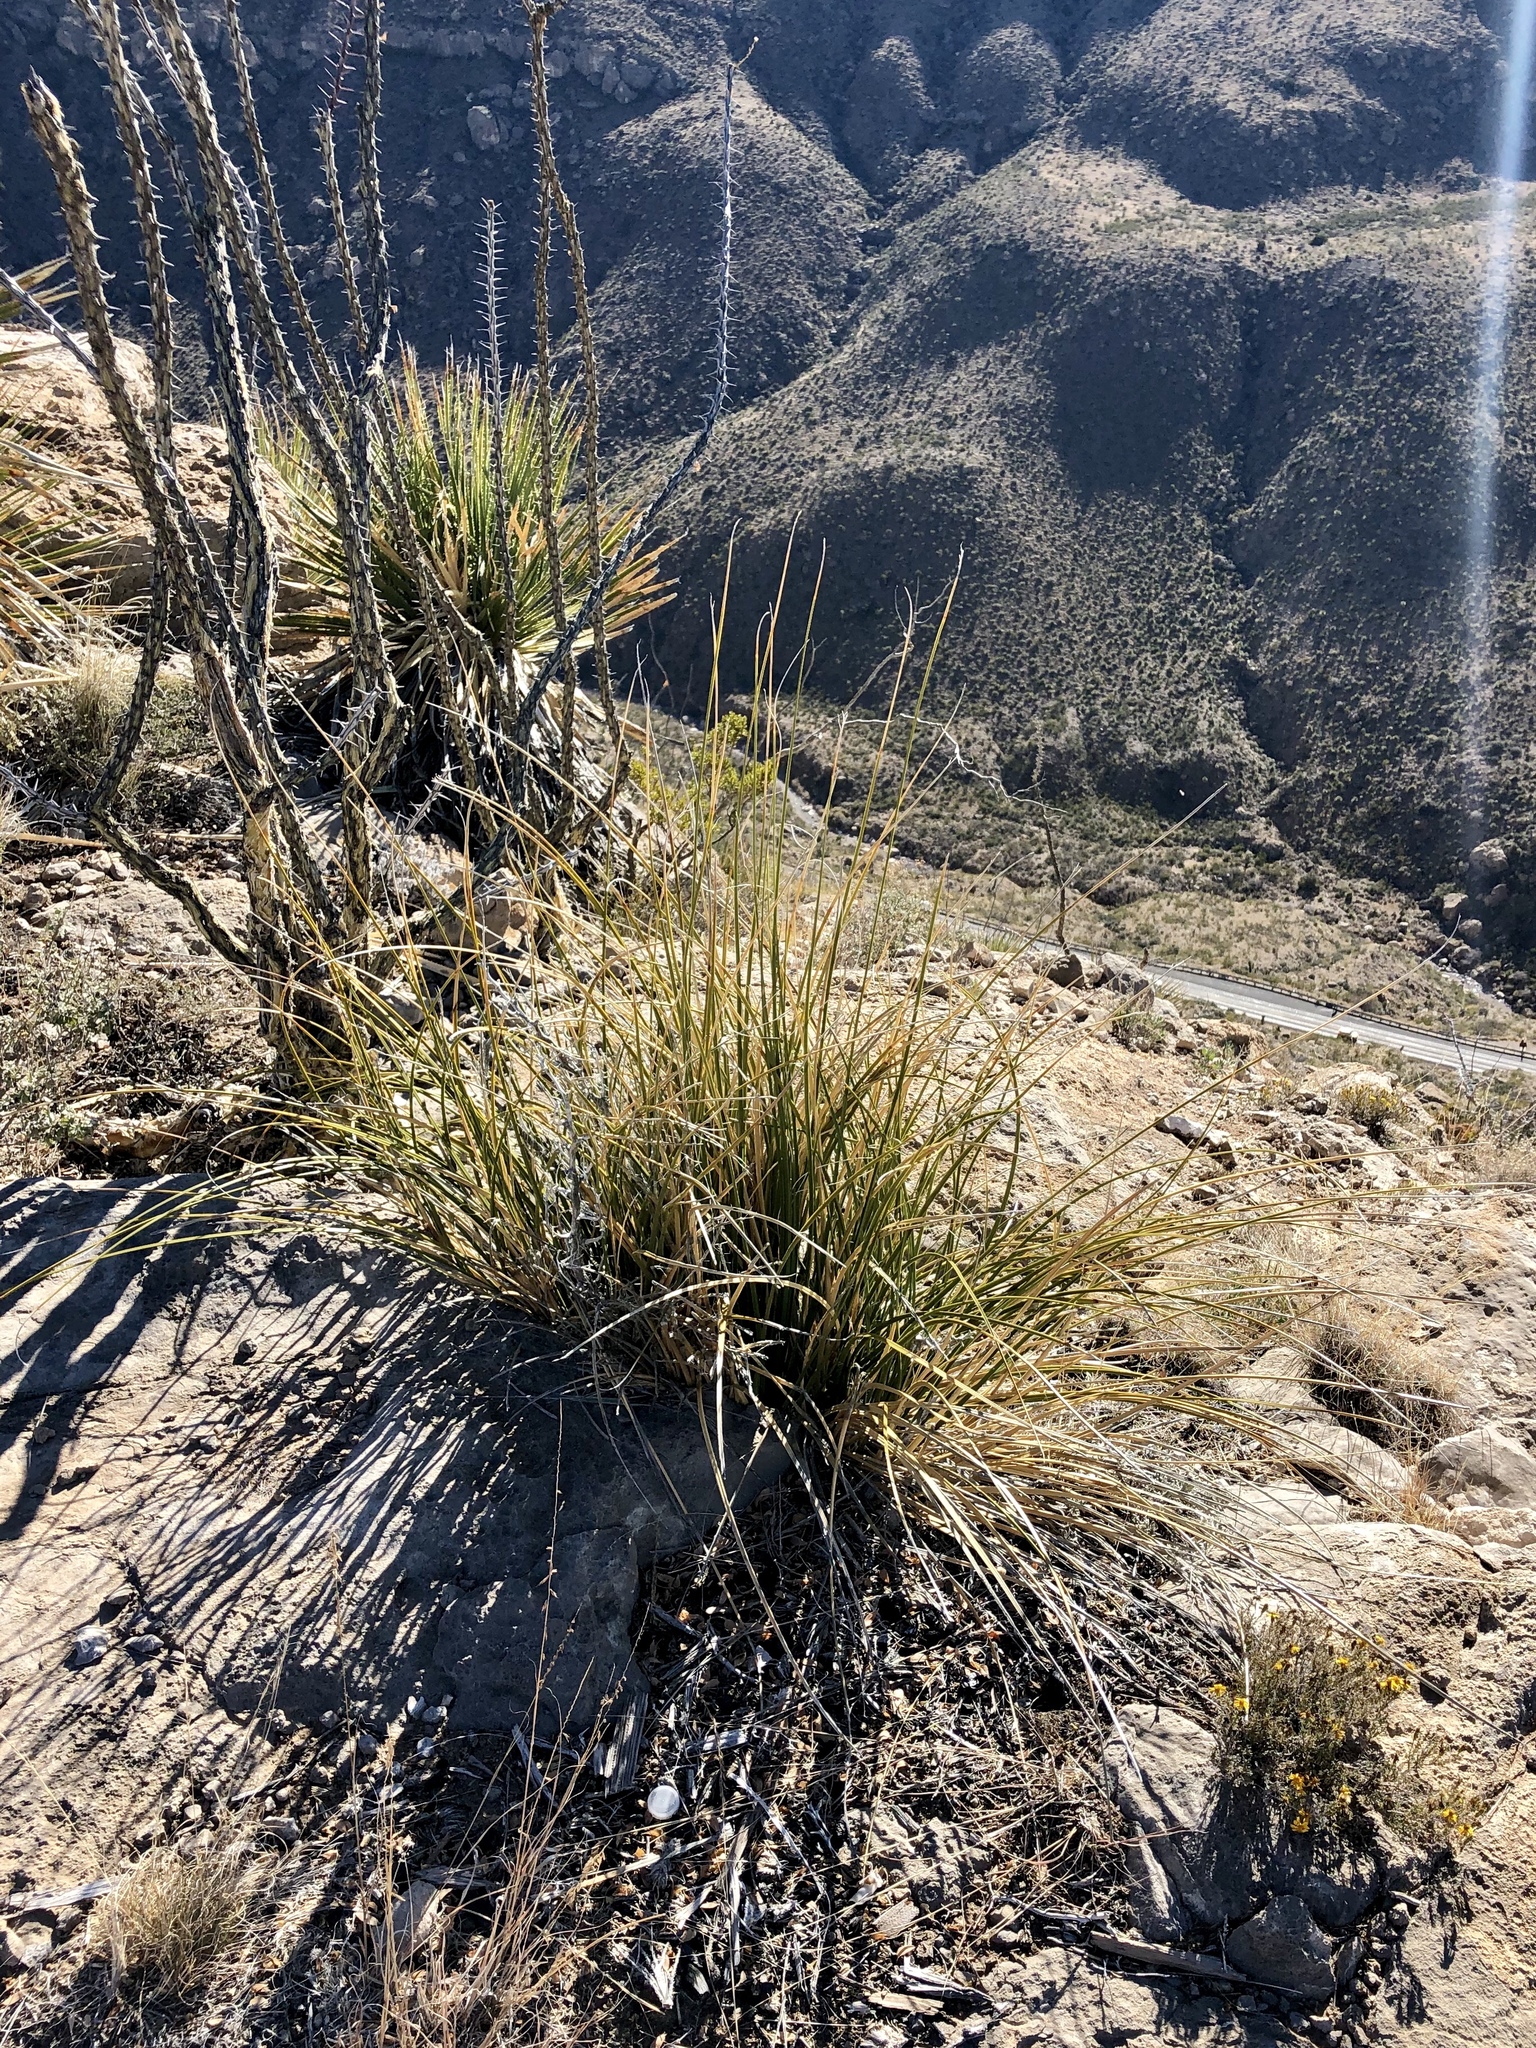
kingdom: Plantae
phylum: Tracheophyta
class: Liliopsida
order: Asparagales
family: Asparagaceae
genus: Nolina
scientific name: Nolina microcarpa
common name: Bear-grass
